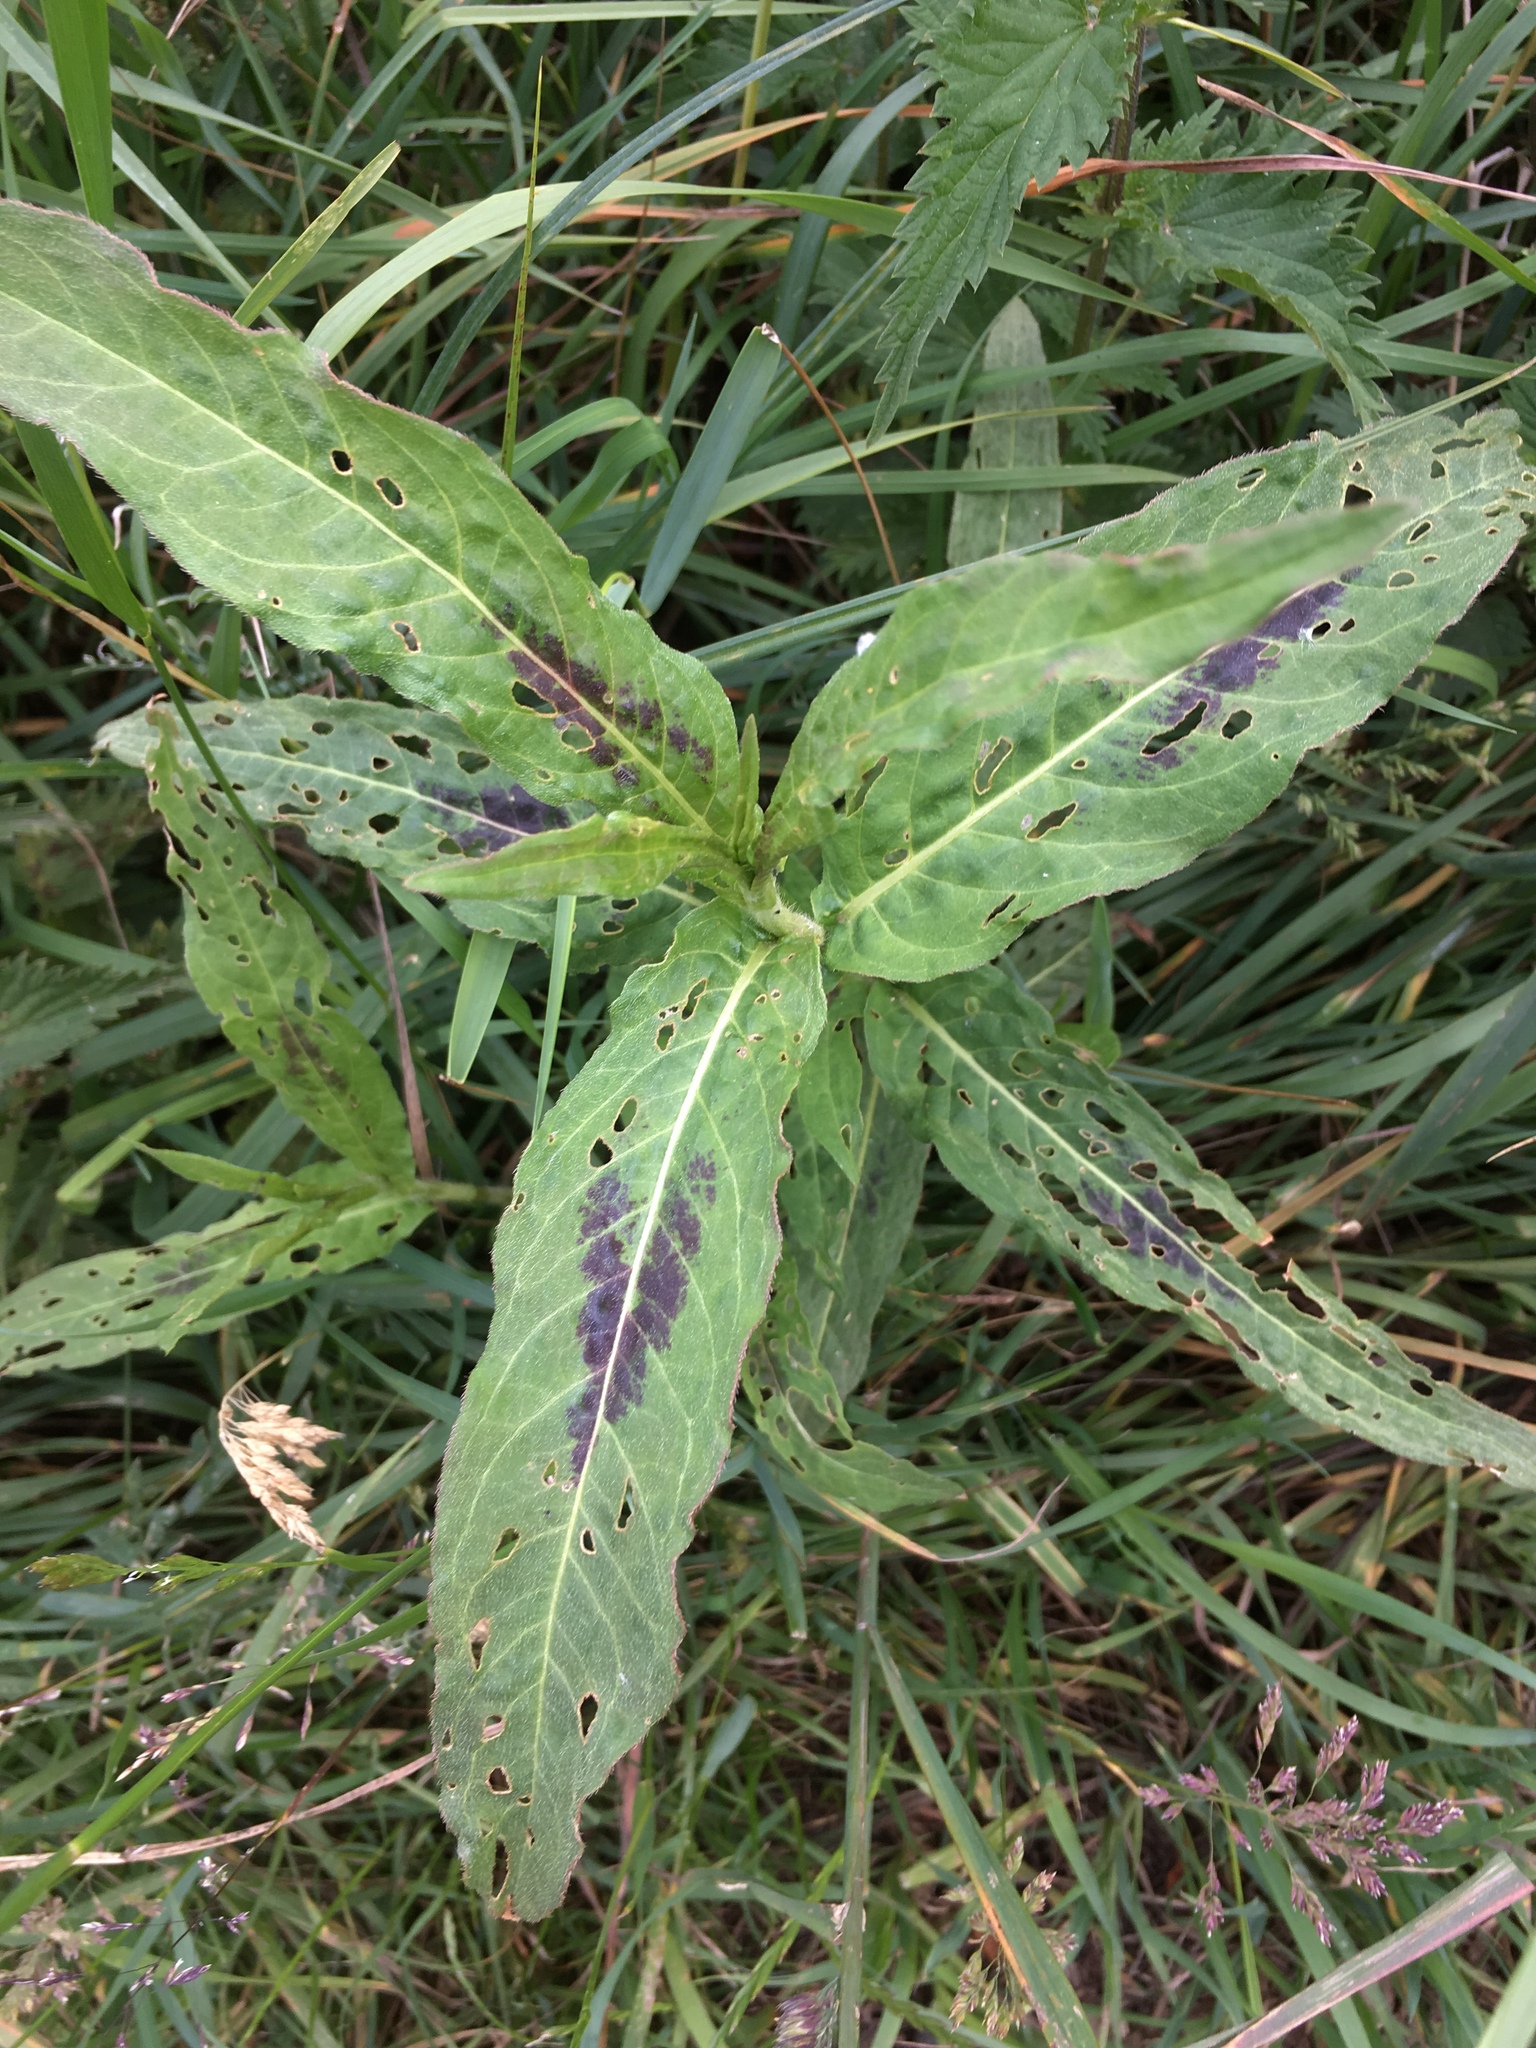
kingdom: Plantae
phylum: Tracheophyta
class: Magnoliopsida
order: Caryophyllales
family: Polygonaceae
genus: Persicaria
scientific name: Persicaria amphibia
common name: Amphibious bistort
